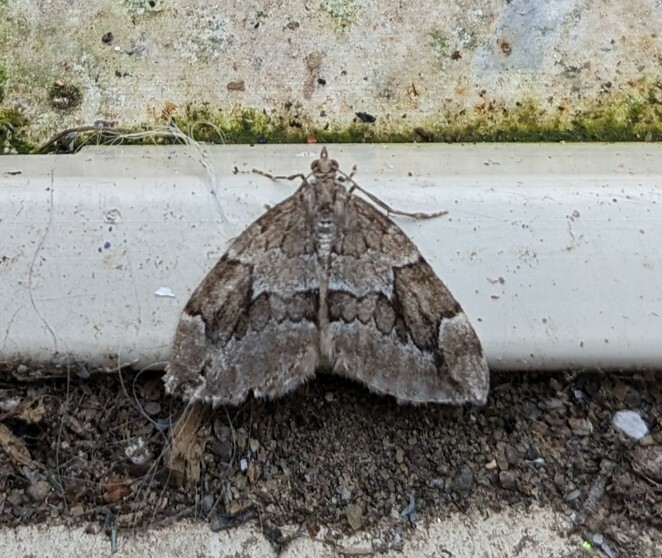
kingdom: Animalia
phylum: Arthropoda
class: Insecta
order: Lepidoptera
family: Geometridae
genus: Thera
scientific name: Thera juniperata
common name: Juniper carpet
